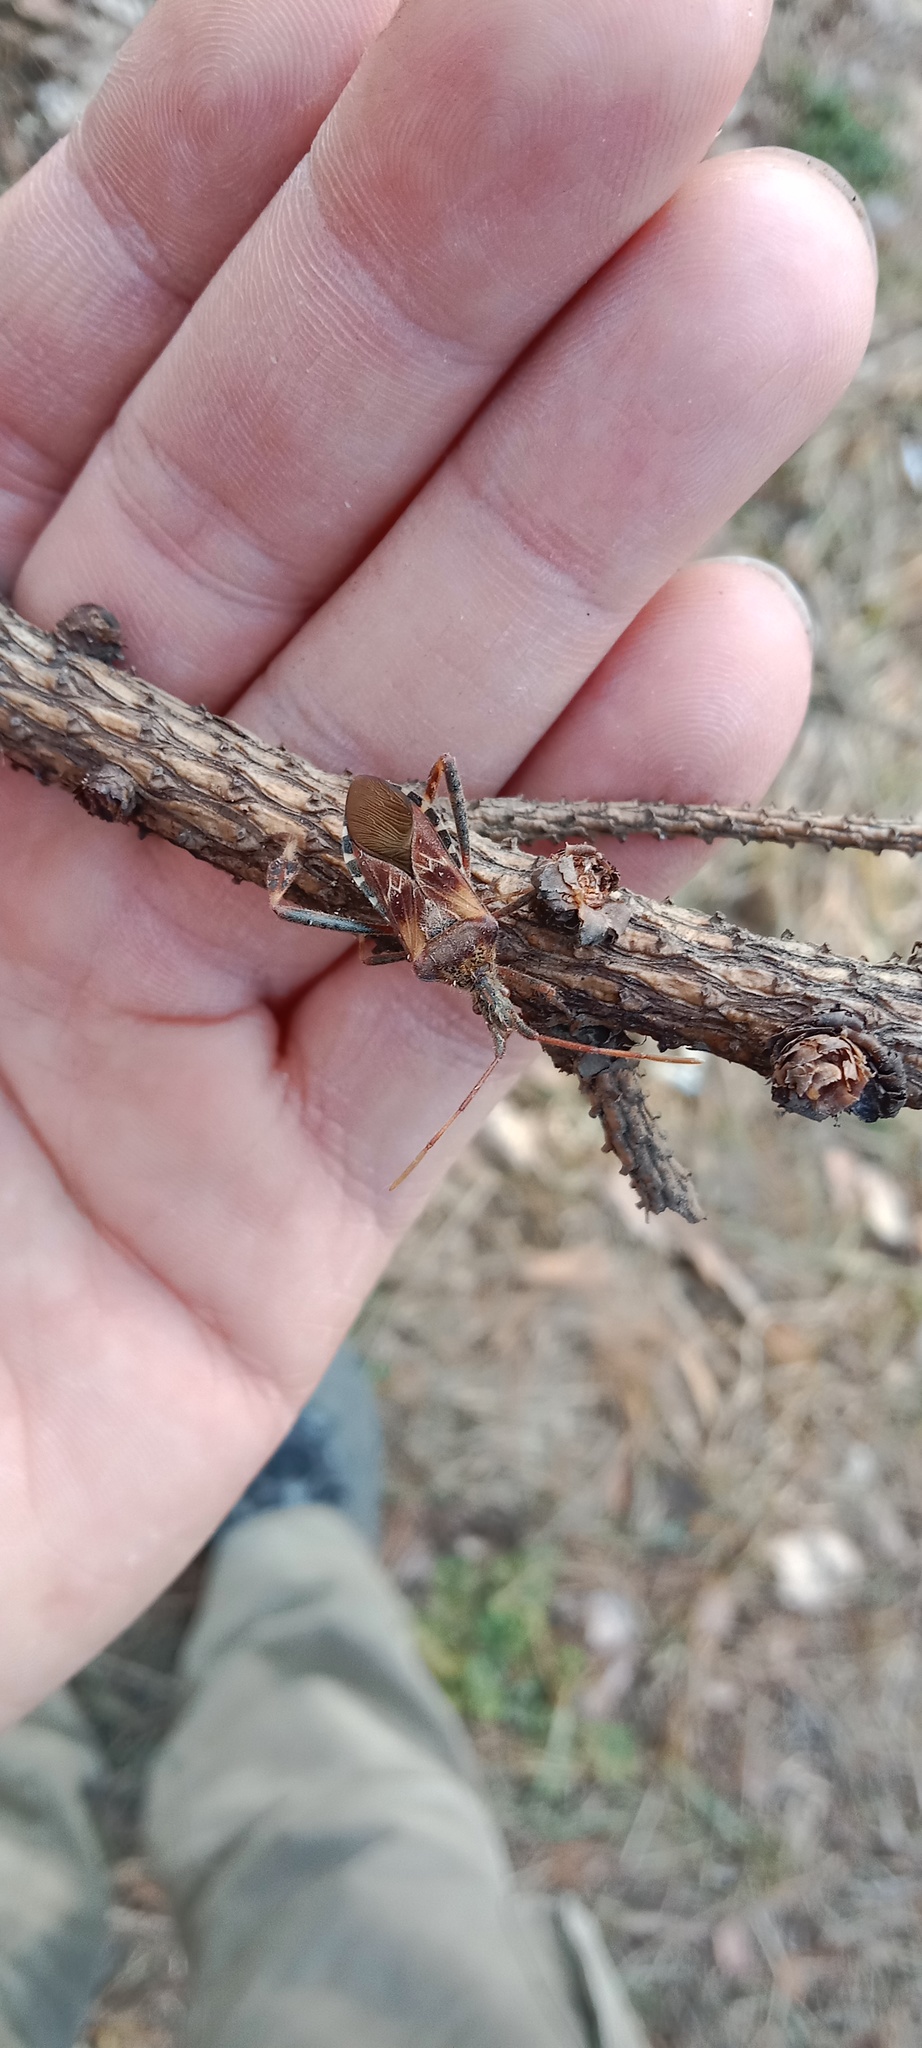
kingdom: Animalia
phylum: Arthropoda
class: Insecta
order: Hemiptera
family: Coreidae
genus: Leptoglossus
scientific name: Leptoglossus occidentalis
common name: Western conifer-seed bug
